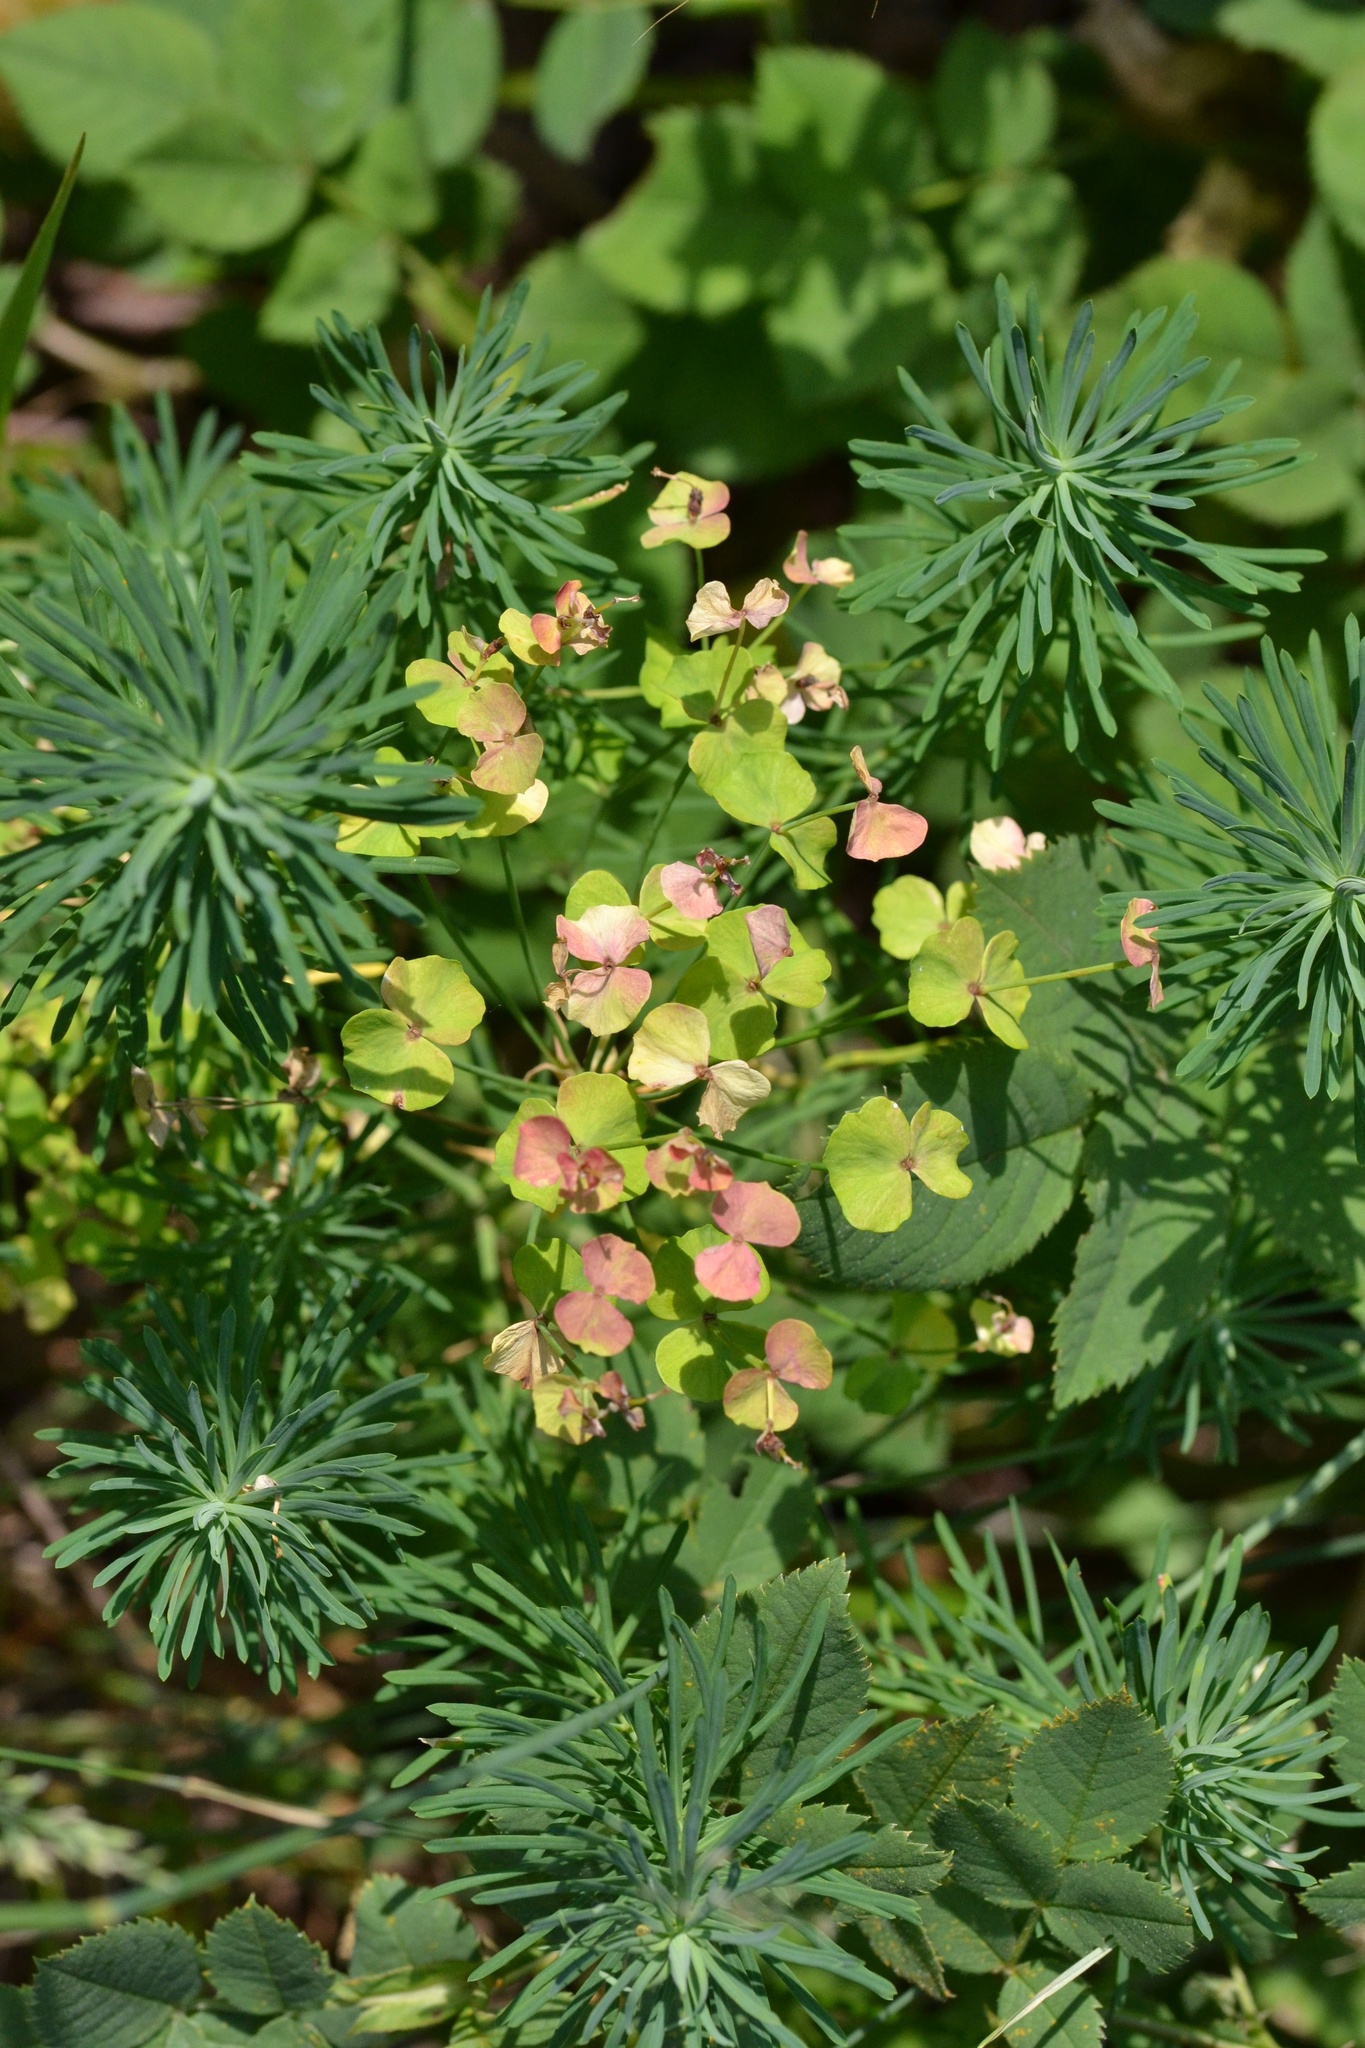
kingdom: Plantae
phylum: Tracheophyta
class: Magnoliopsida
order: Malpighiales
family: Euphorbiaceae
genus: Euphorbia
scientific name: Euphorbia cyparissias
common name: Cypress spurge
